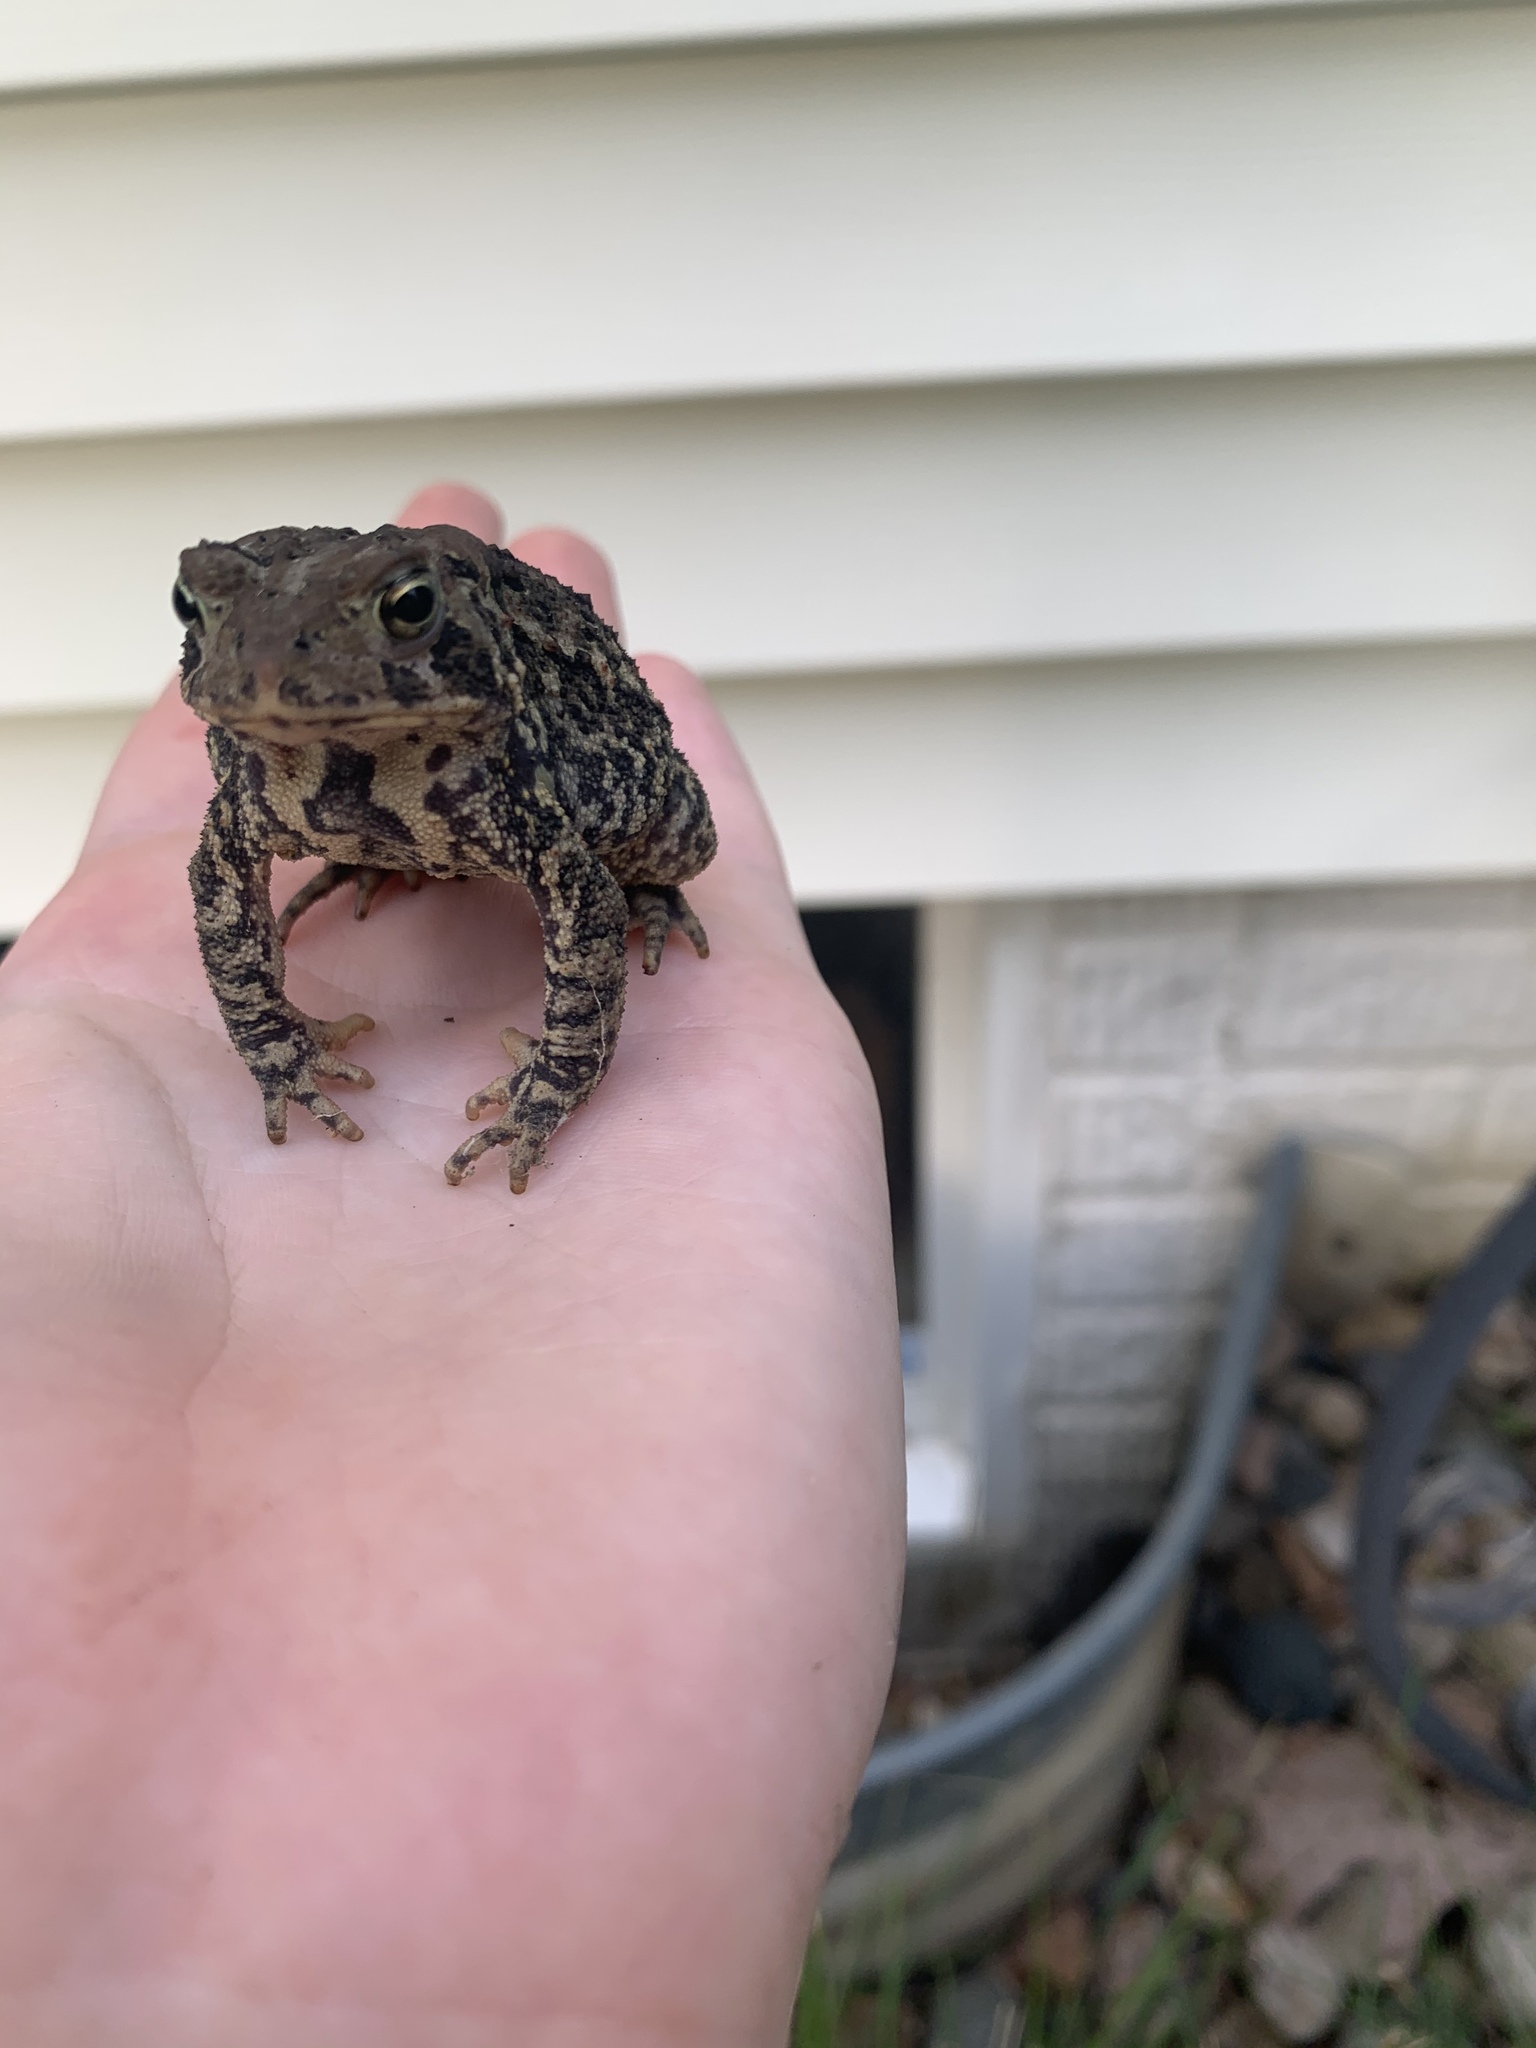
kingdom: Animalia
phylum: Chordata
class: Amphibia
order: Anura
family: Bufonidae
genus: Anaxyrus
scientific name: Anaxyrus americanus
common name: American toad
